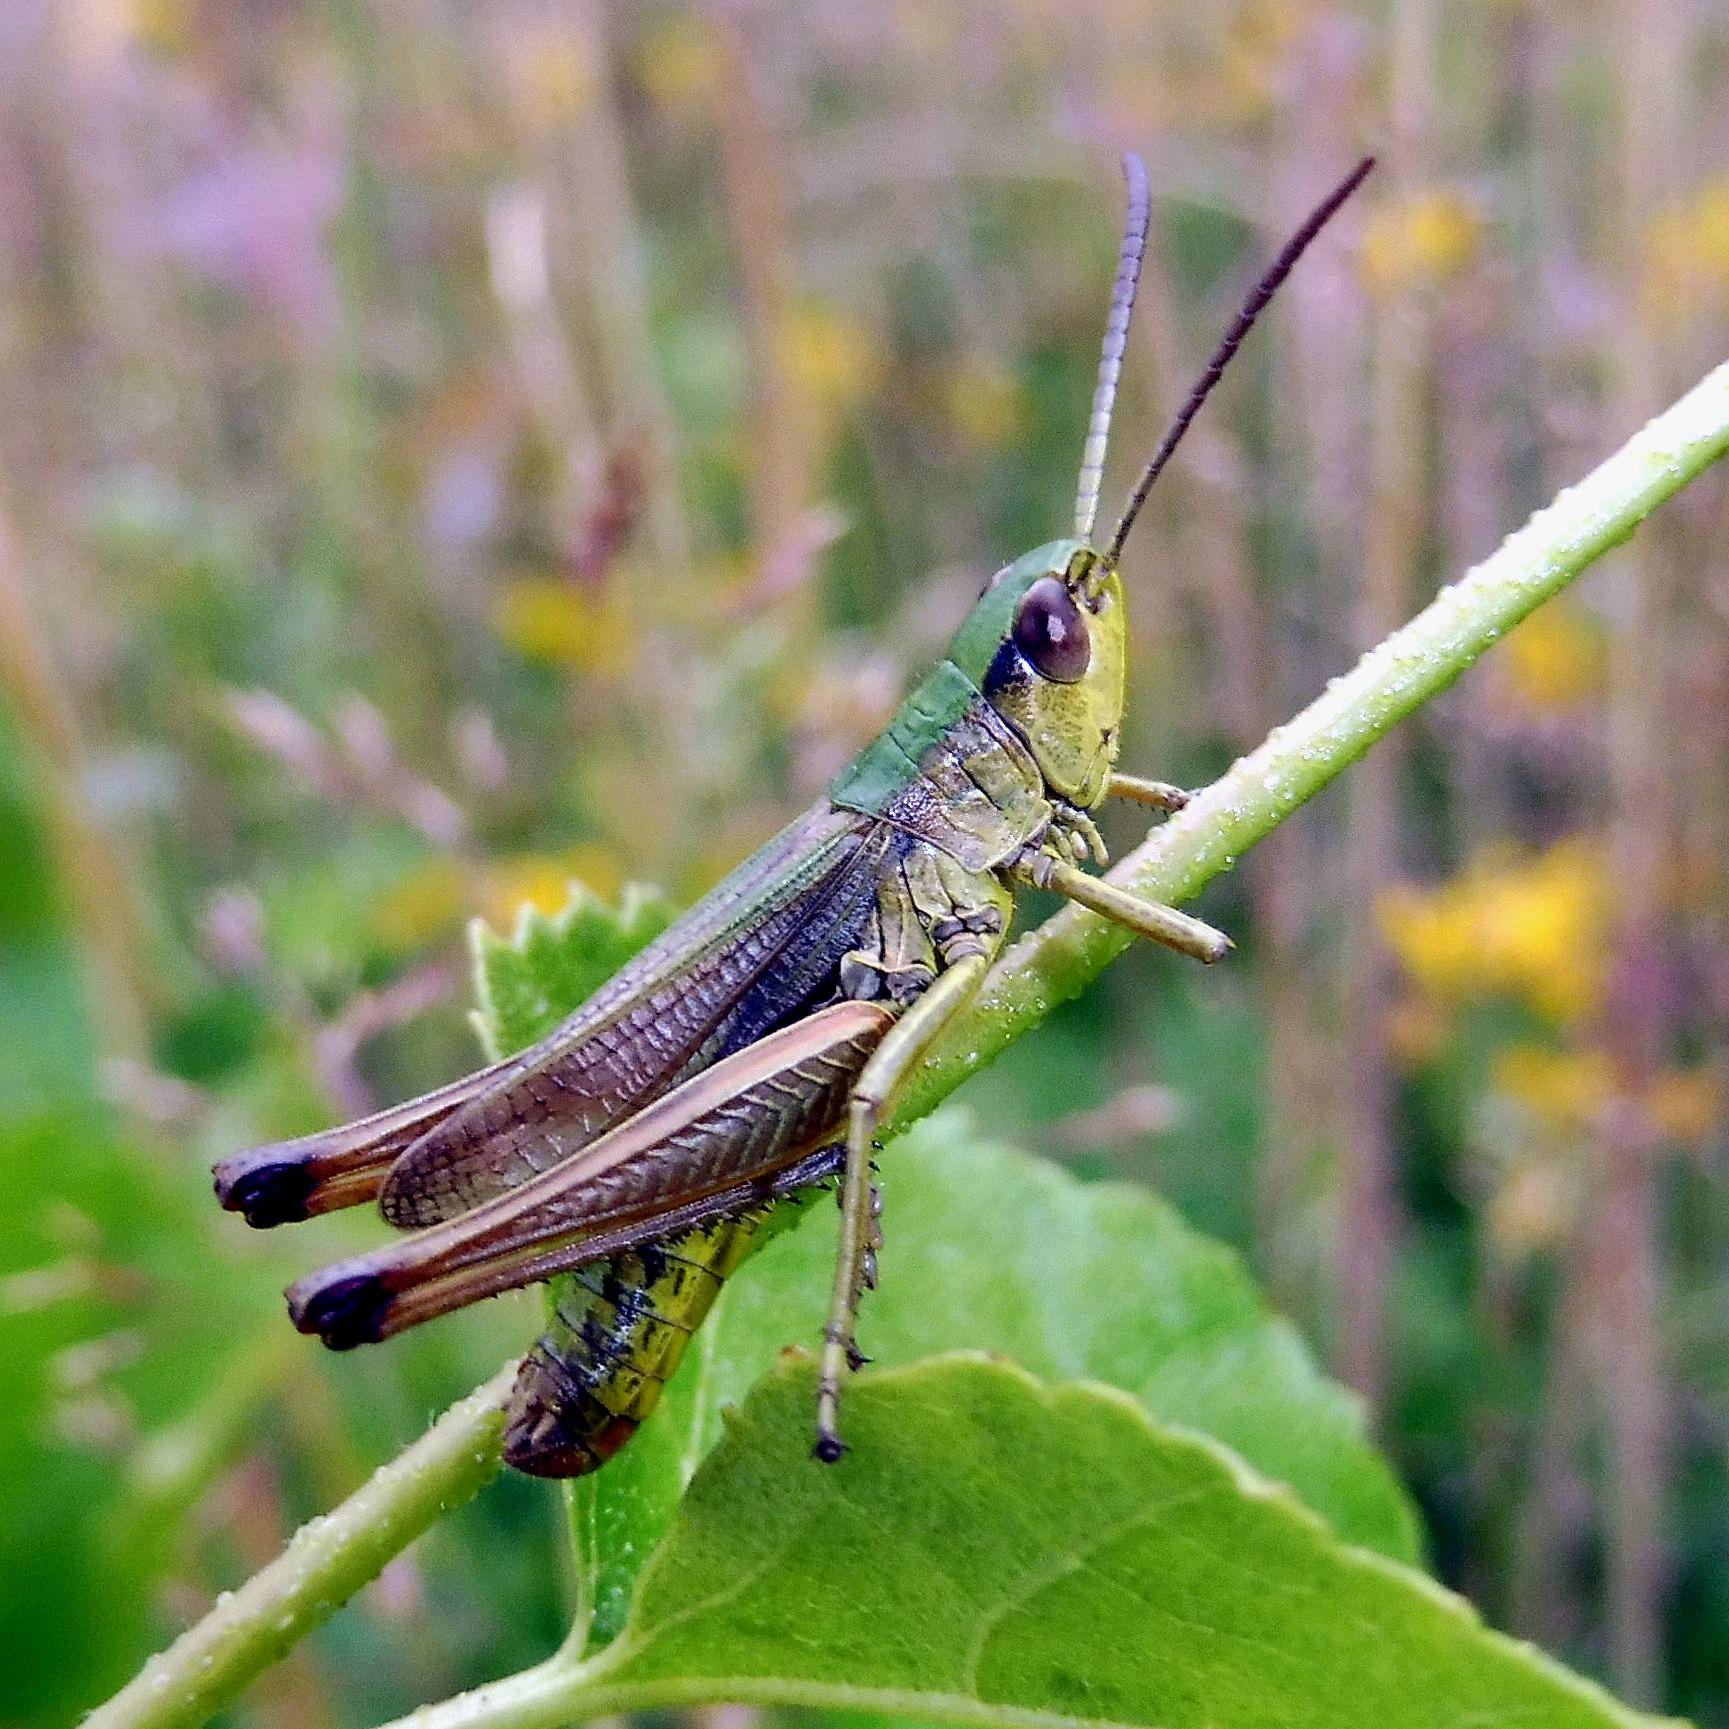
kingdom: Animalia
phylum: Arthropoda
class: Insecta
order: Orthoptera
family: Acrididae
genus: Pseudochorthippus
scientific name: Pseudochorthippus parallelus
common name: Meadow grasshopper
